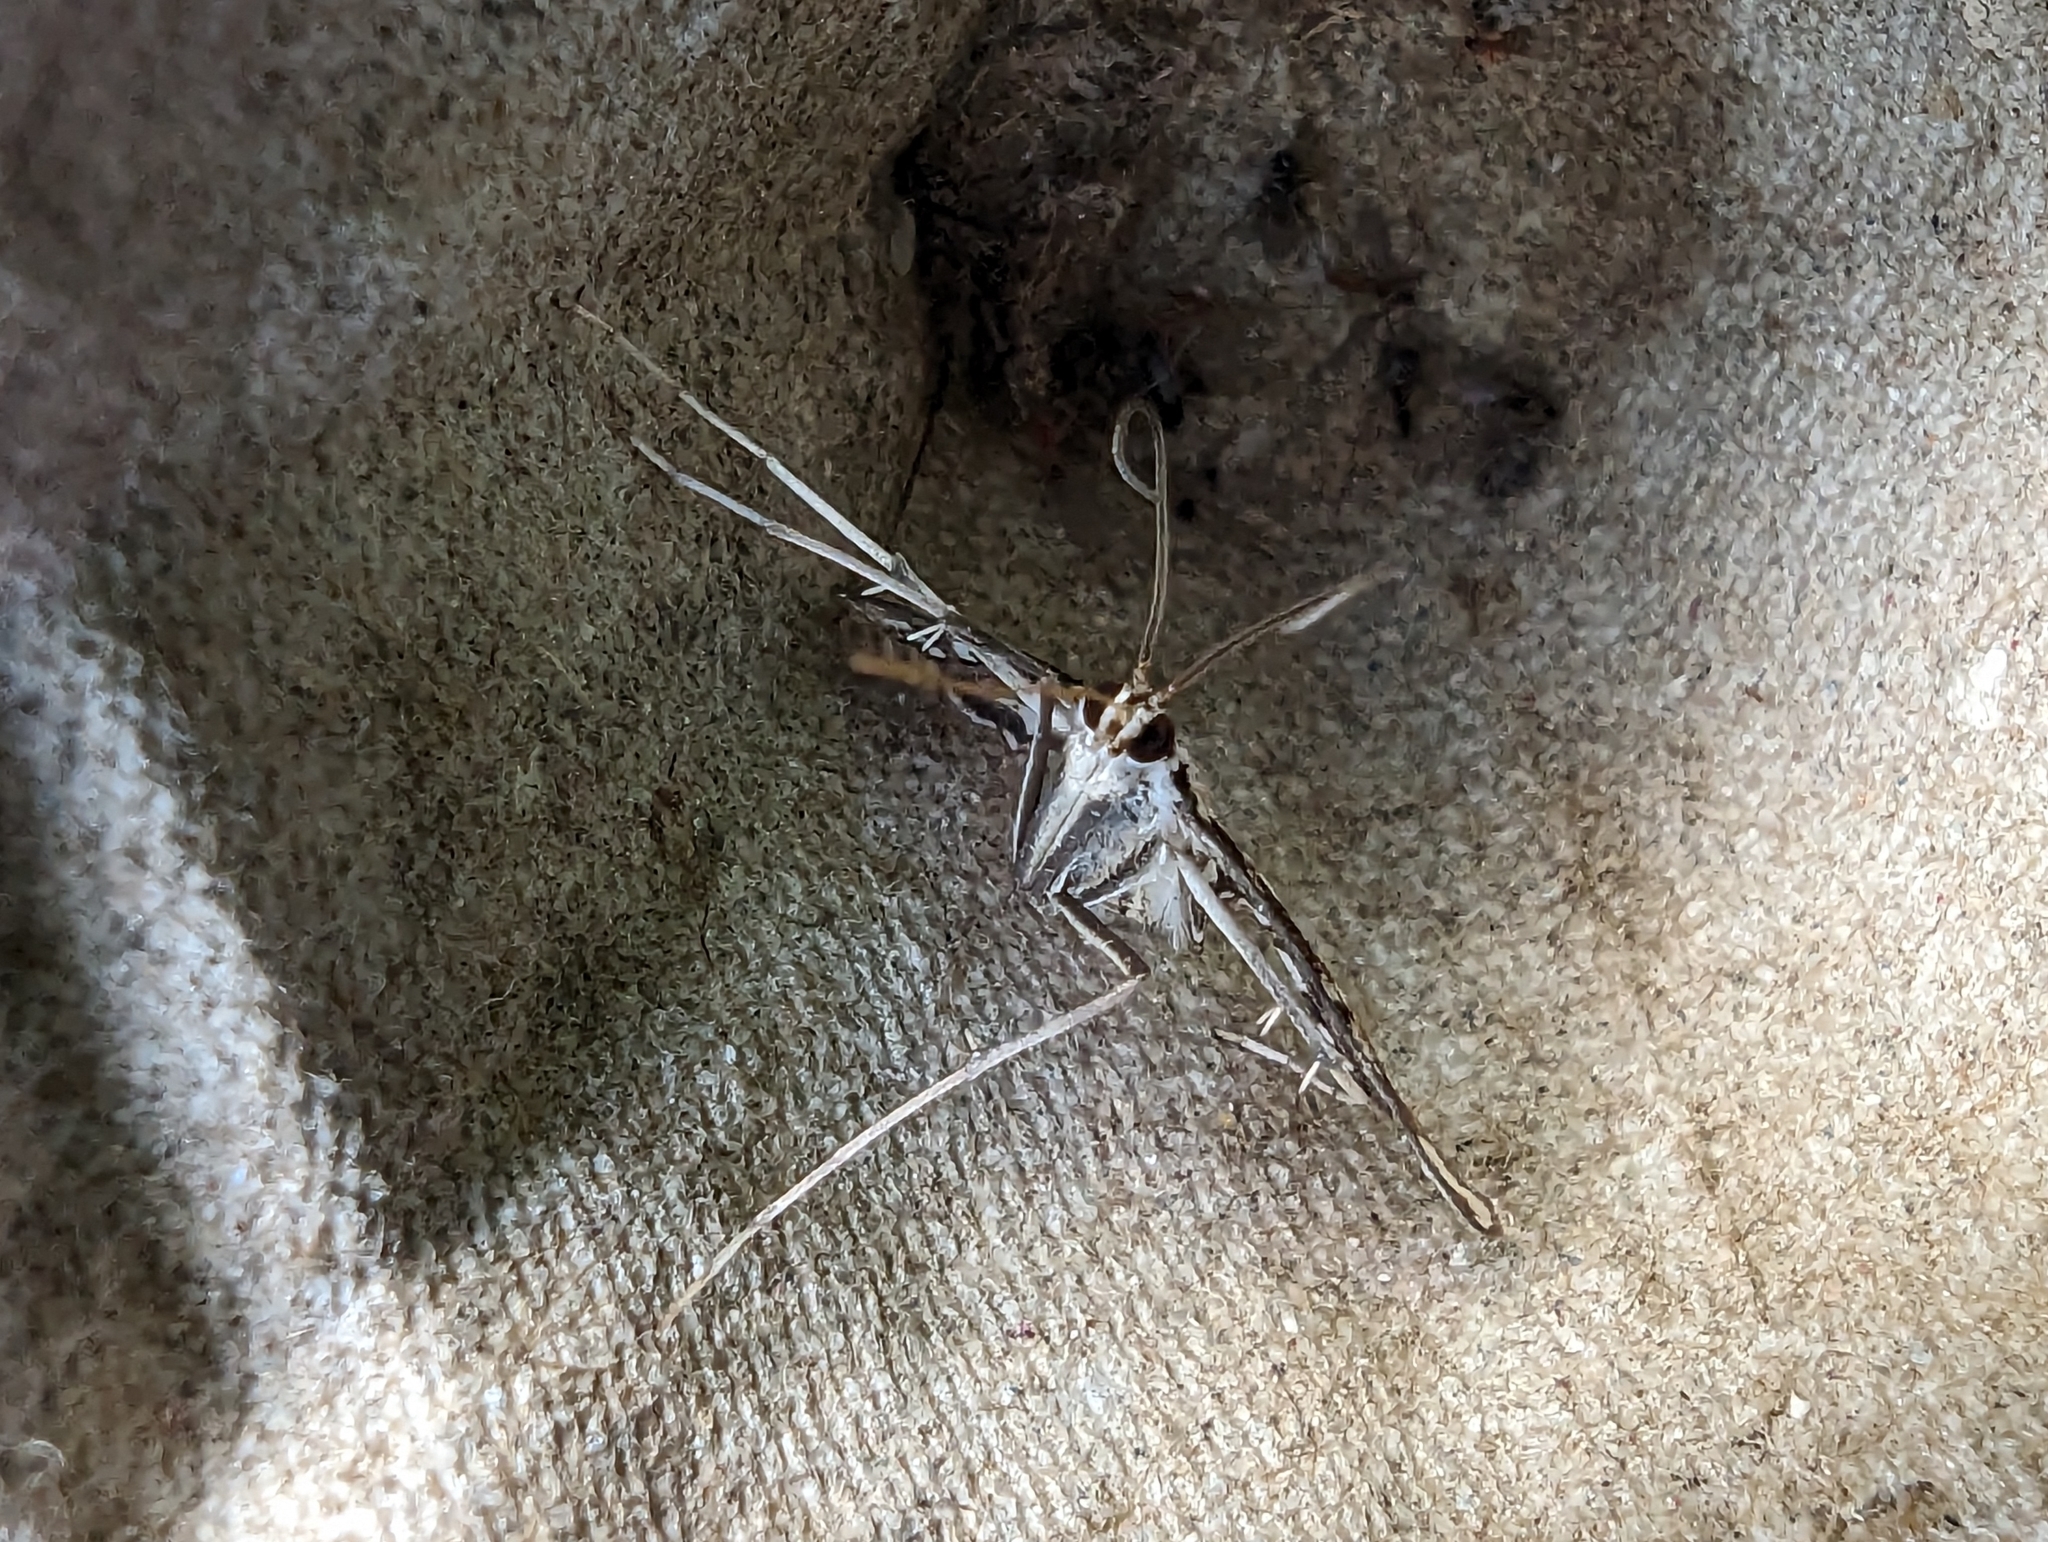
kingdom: Animalia
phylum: Arthropoda
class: Insecta
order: Lepidoptera
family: Crambidae
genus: Elophila
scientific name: Elophila nymphaeata
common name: Brown china-mark
